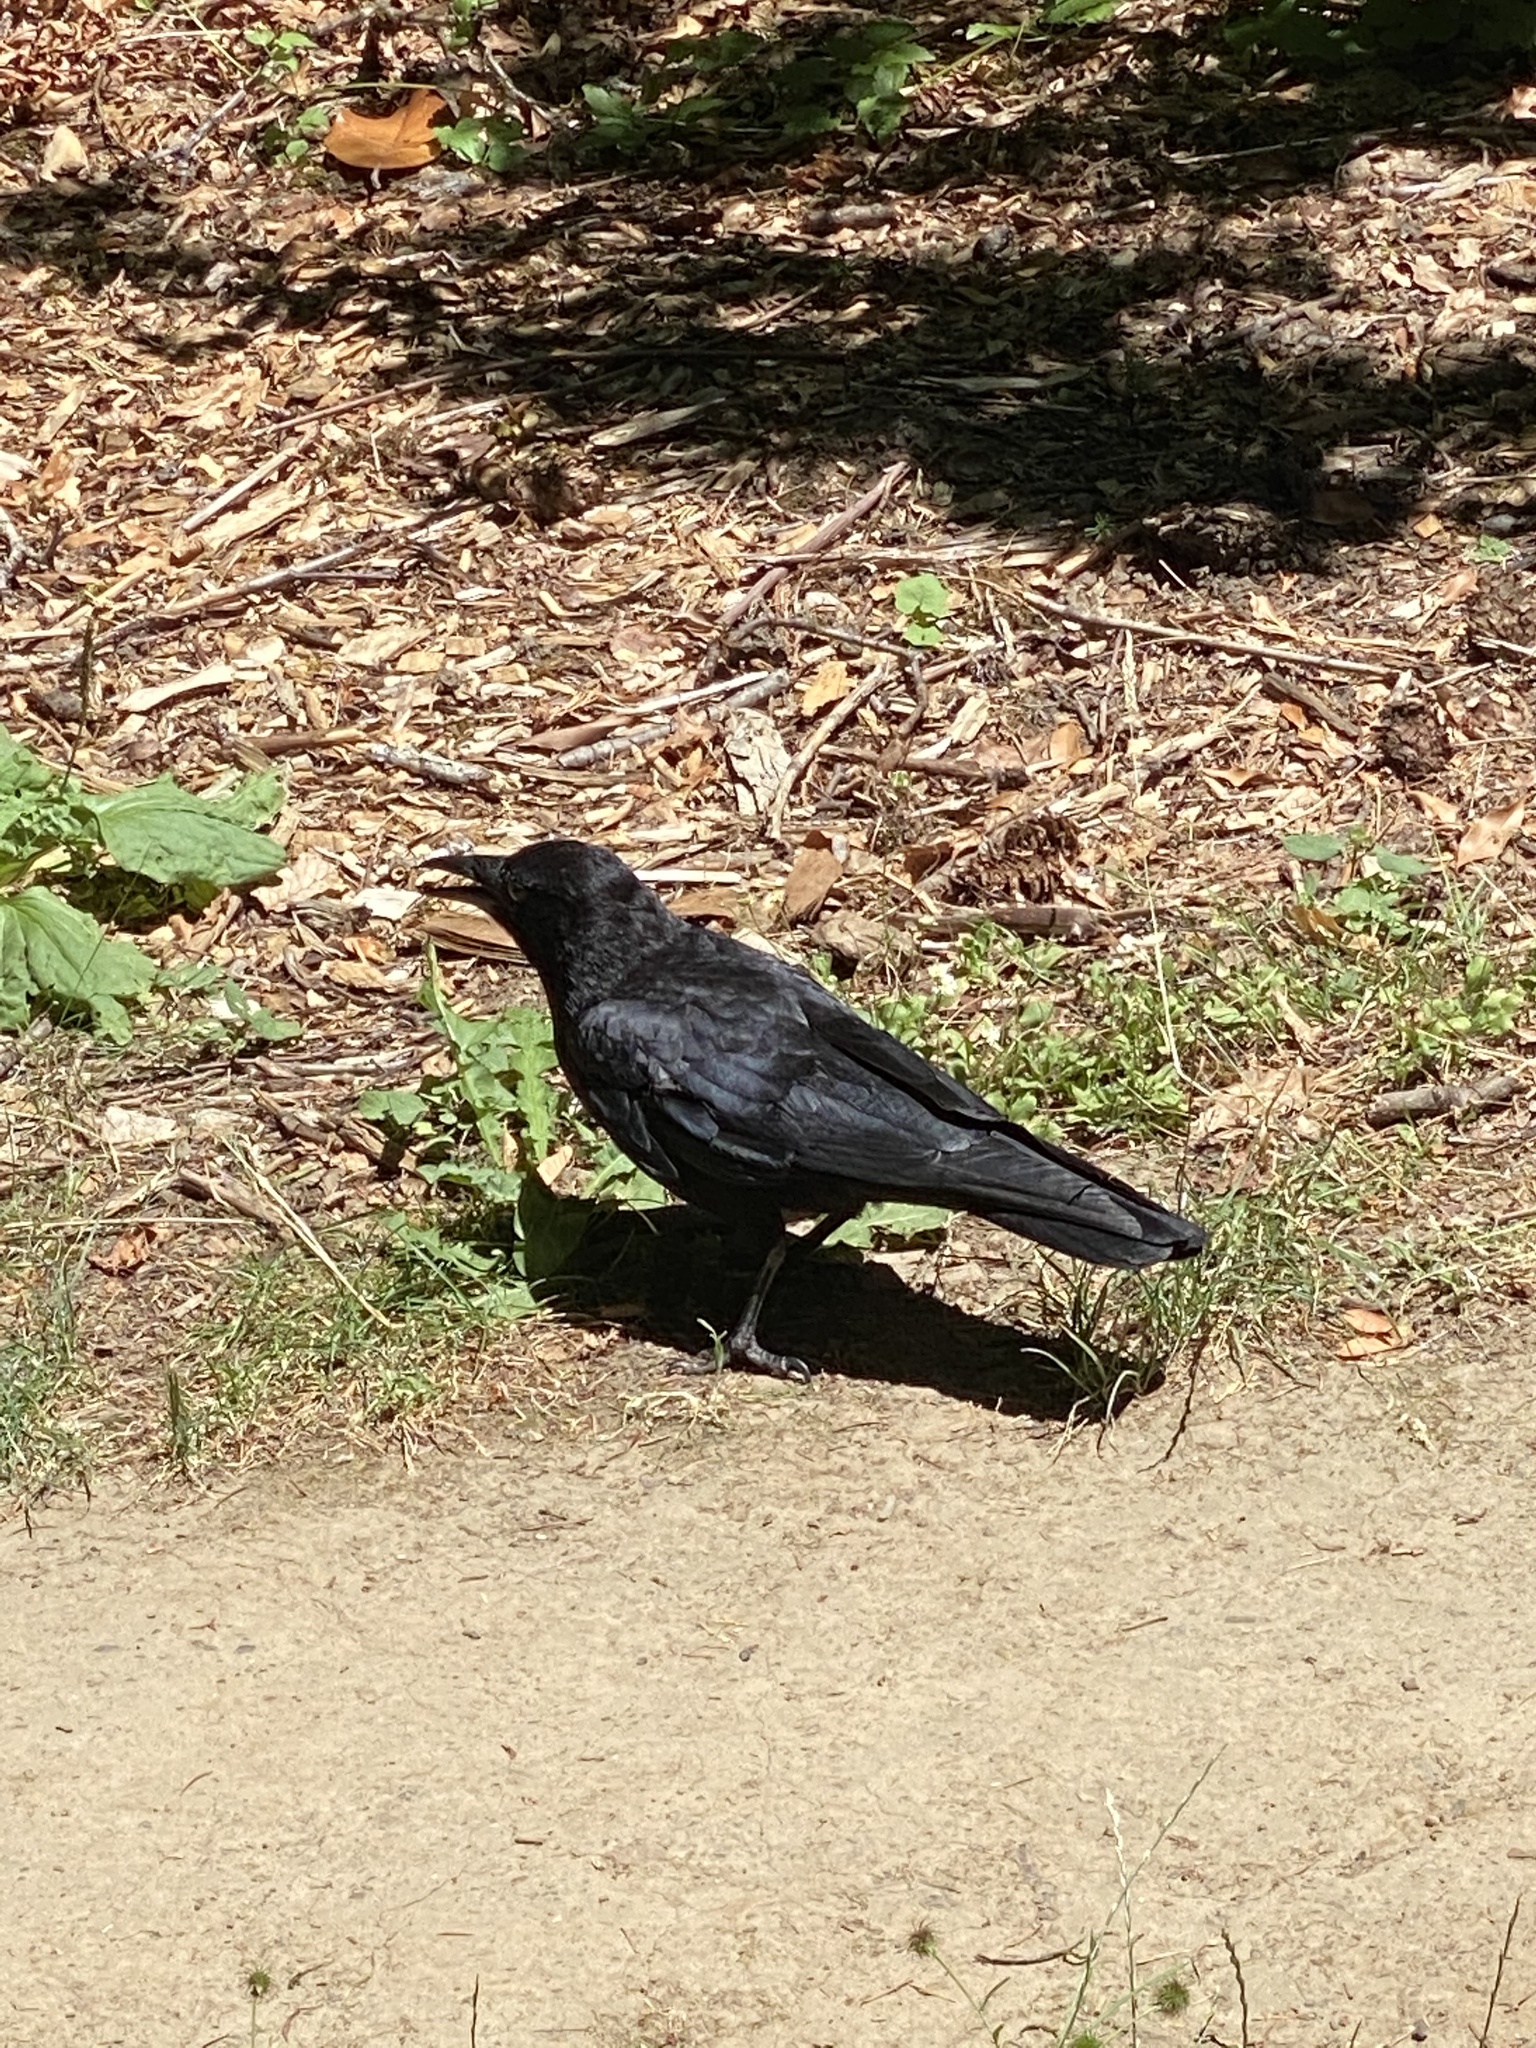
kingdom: Animalia
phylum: Chordata
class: Aves
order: Passeriformes
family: Corvidae
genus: Corvus
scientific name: Corvus brachyrhynchos
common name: American crow
